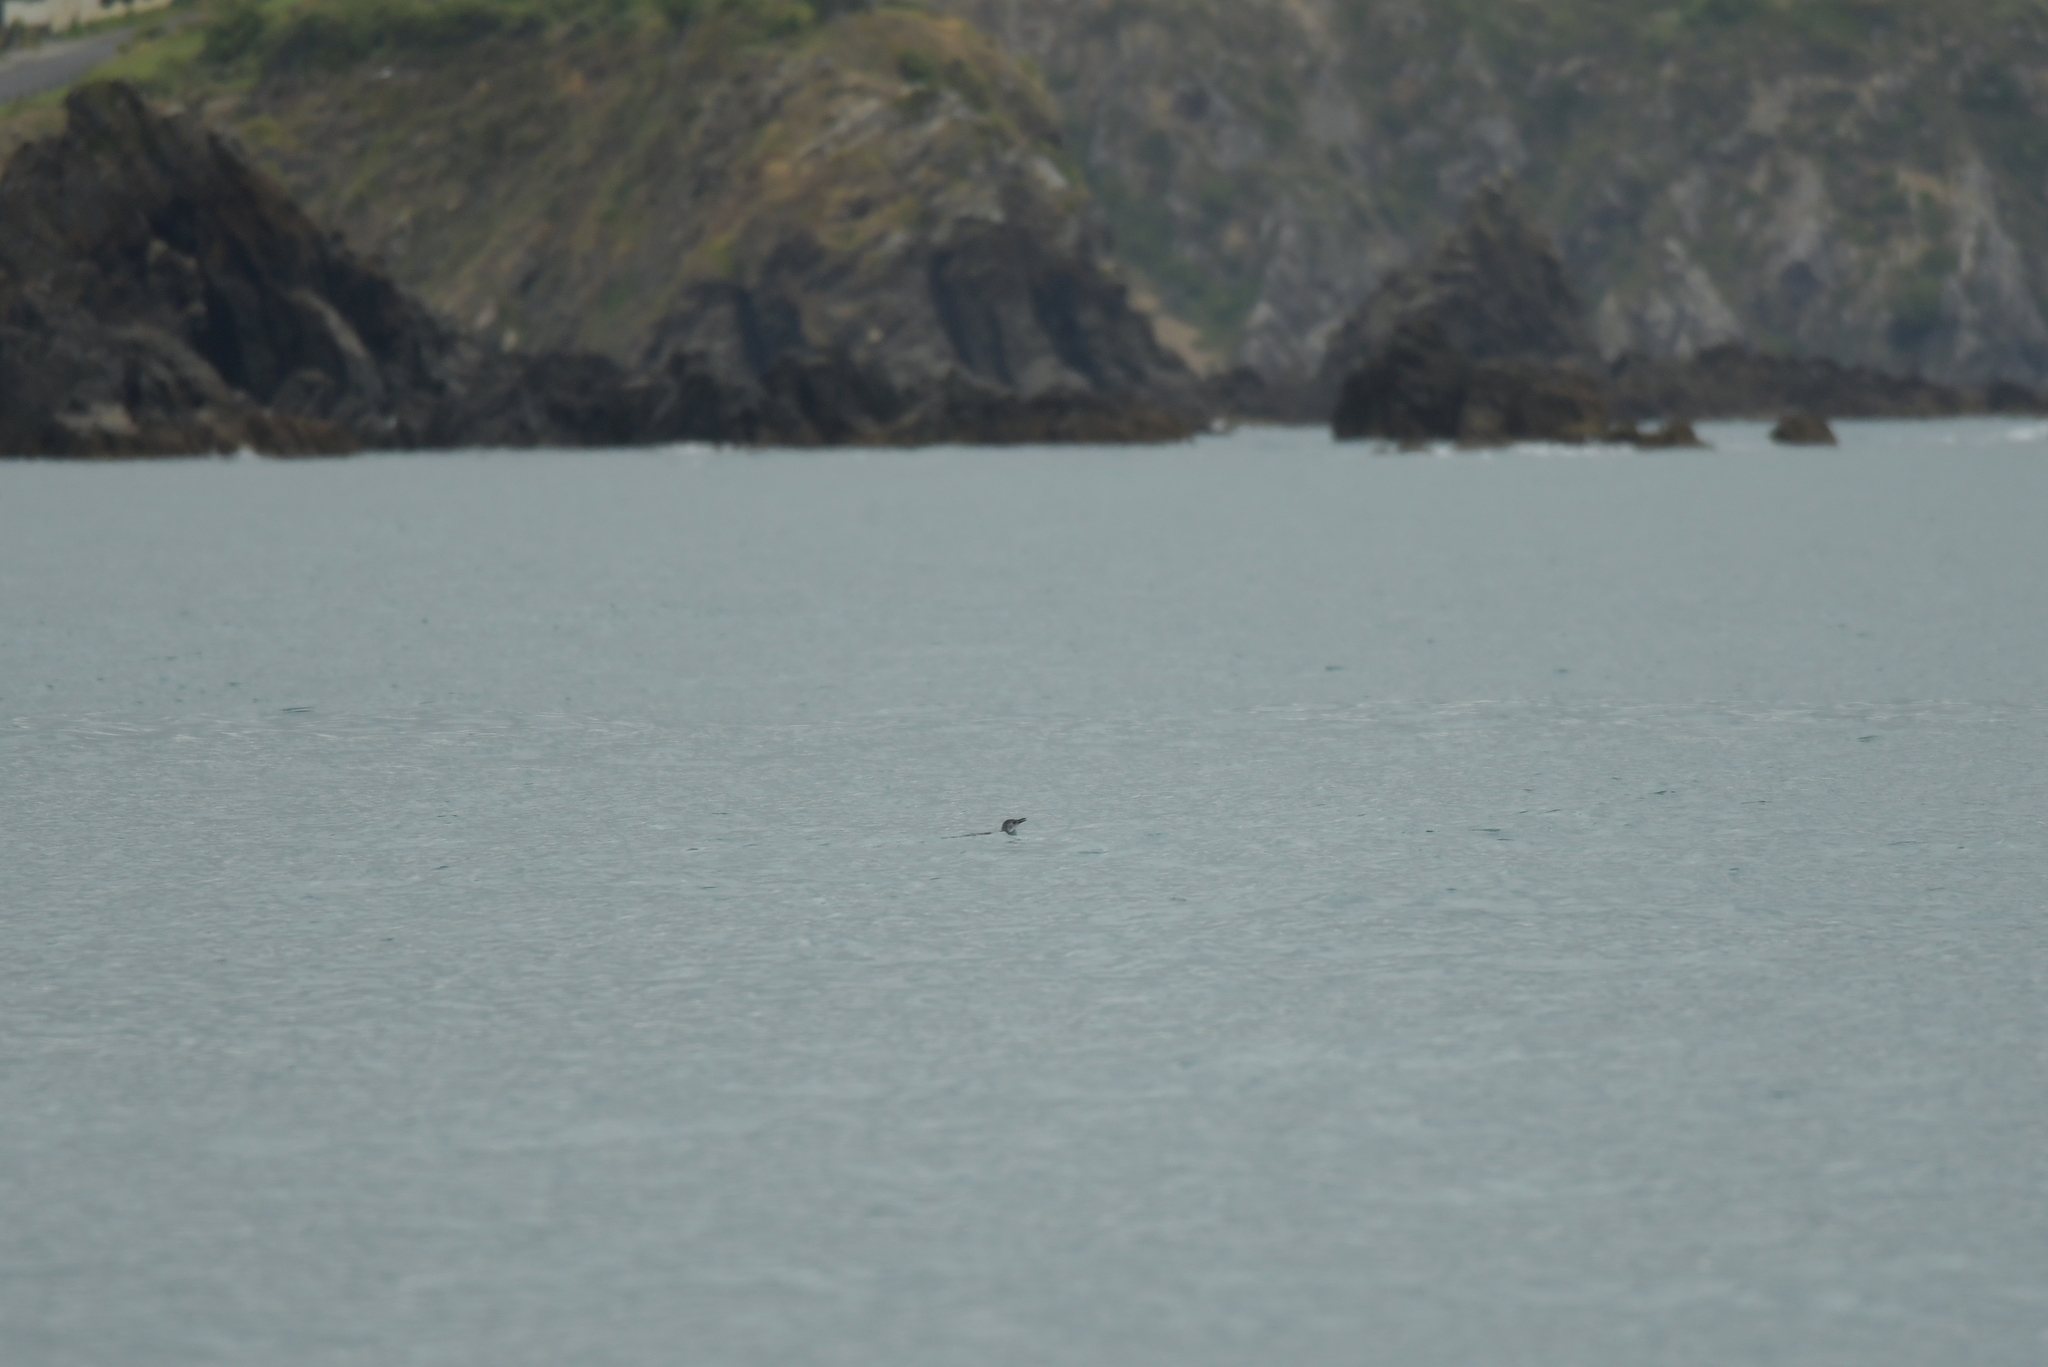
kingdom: Animalia
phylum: Chordata
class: Aves
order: Sphenisciformes
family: Spheniscidae
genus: Eudyptula
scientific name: Eudyptula minor
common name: Little penguin
